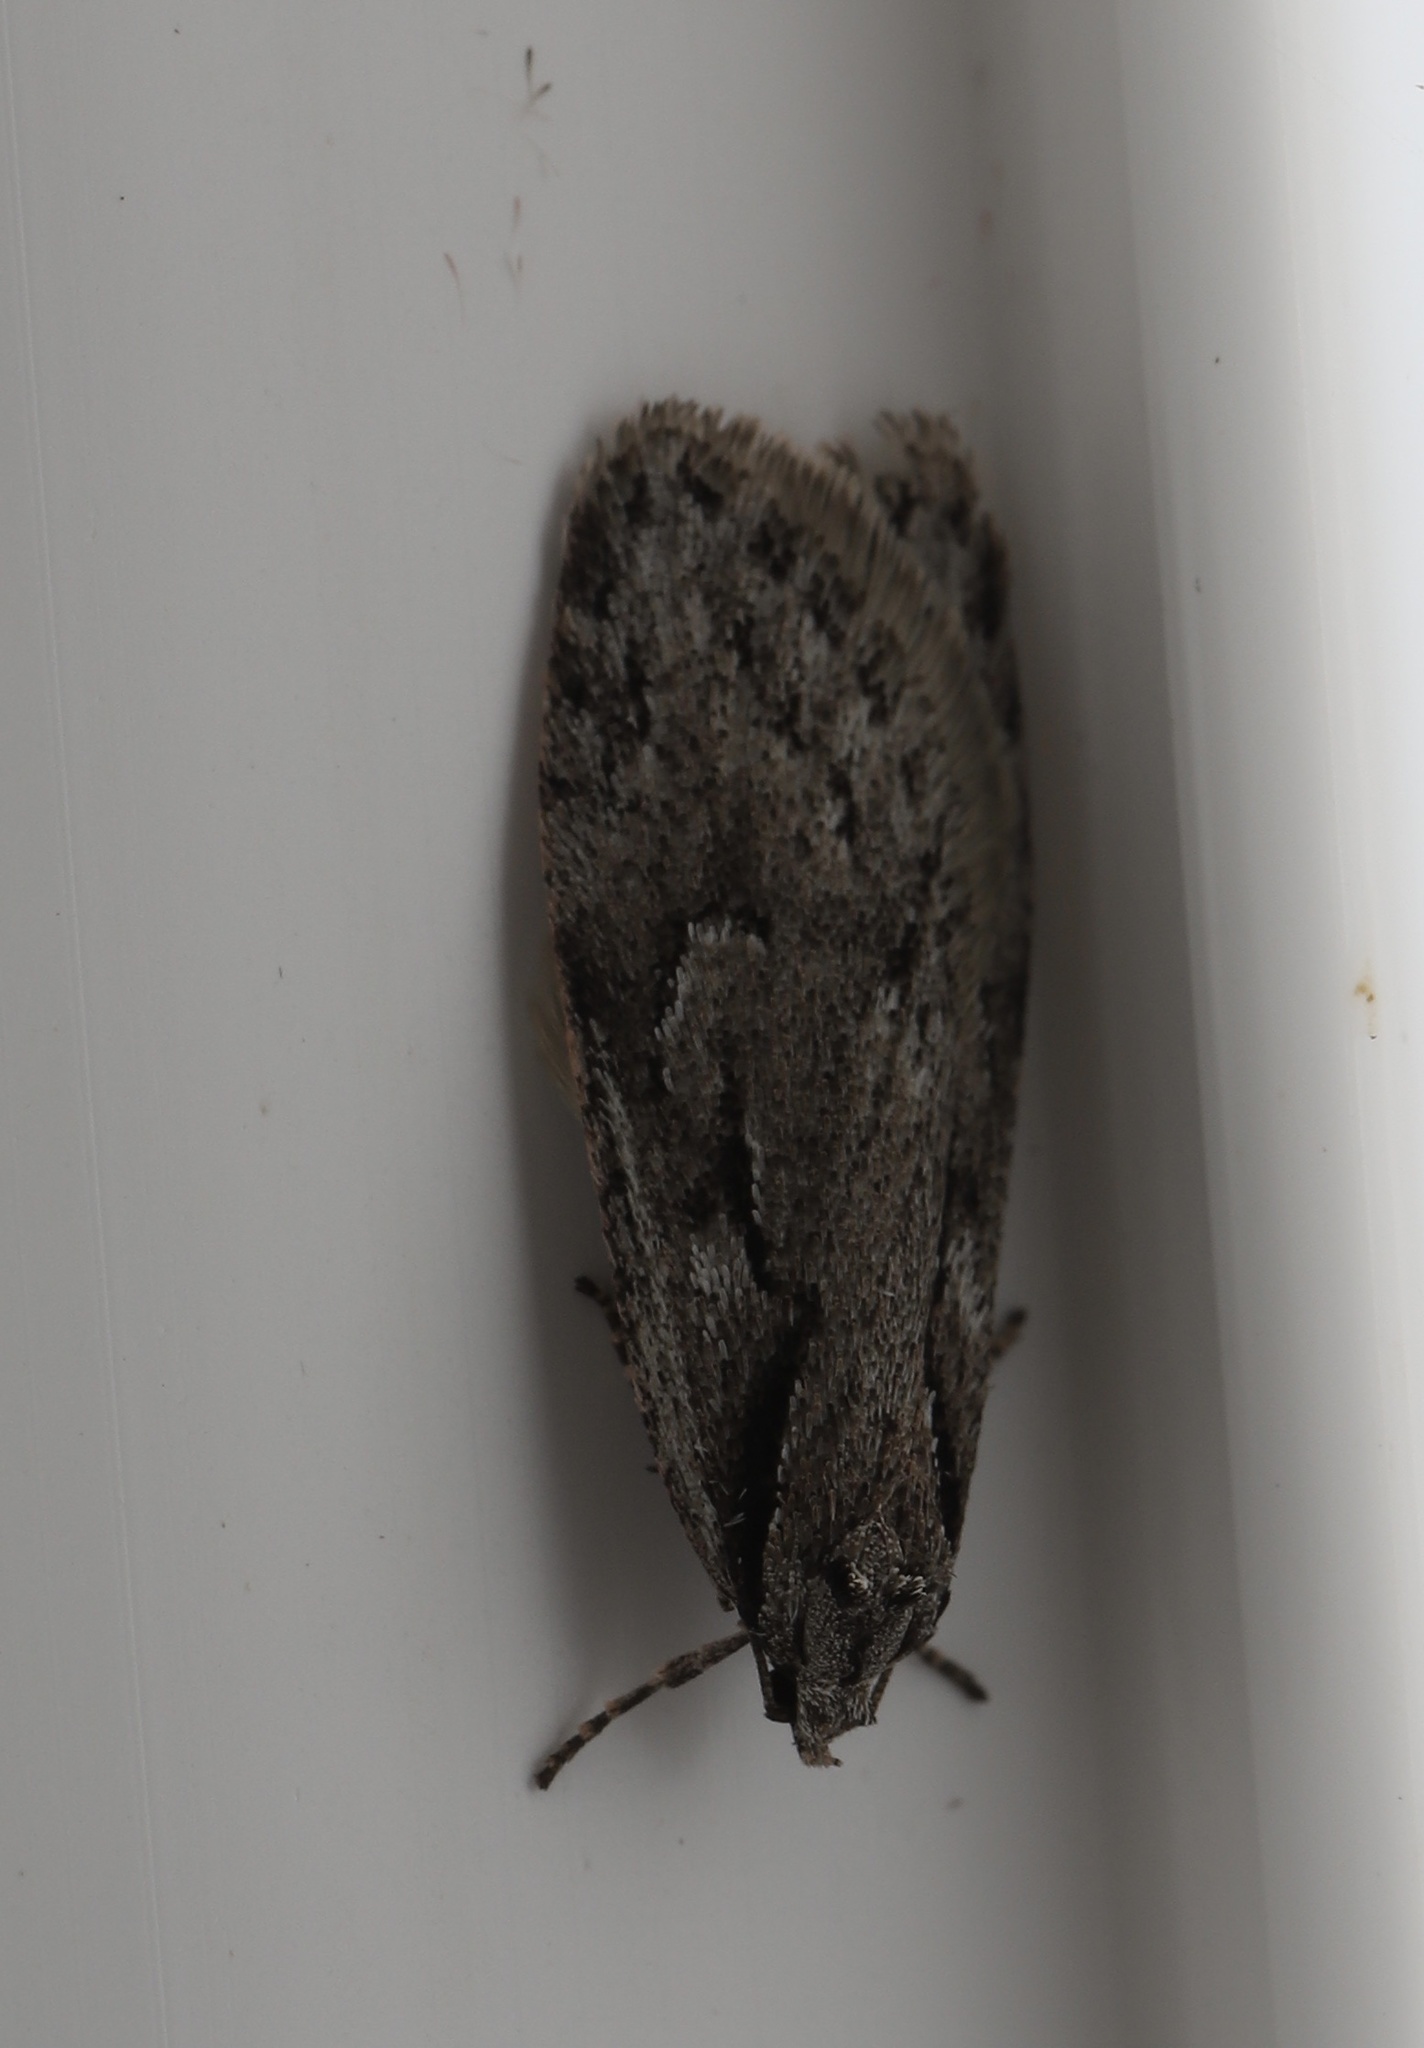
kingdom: Animalia
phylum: Arthropoda
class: Insecta
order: Lepidoptera
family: Depressariidae
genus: Semioscopis
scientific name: Semioscopis aurorella
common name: Aurora flatbody moth
